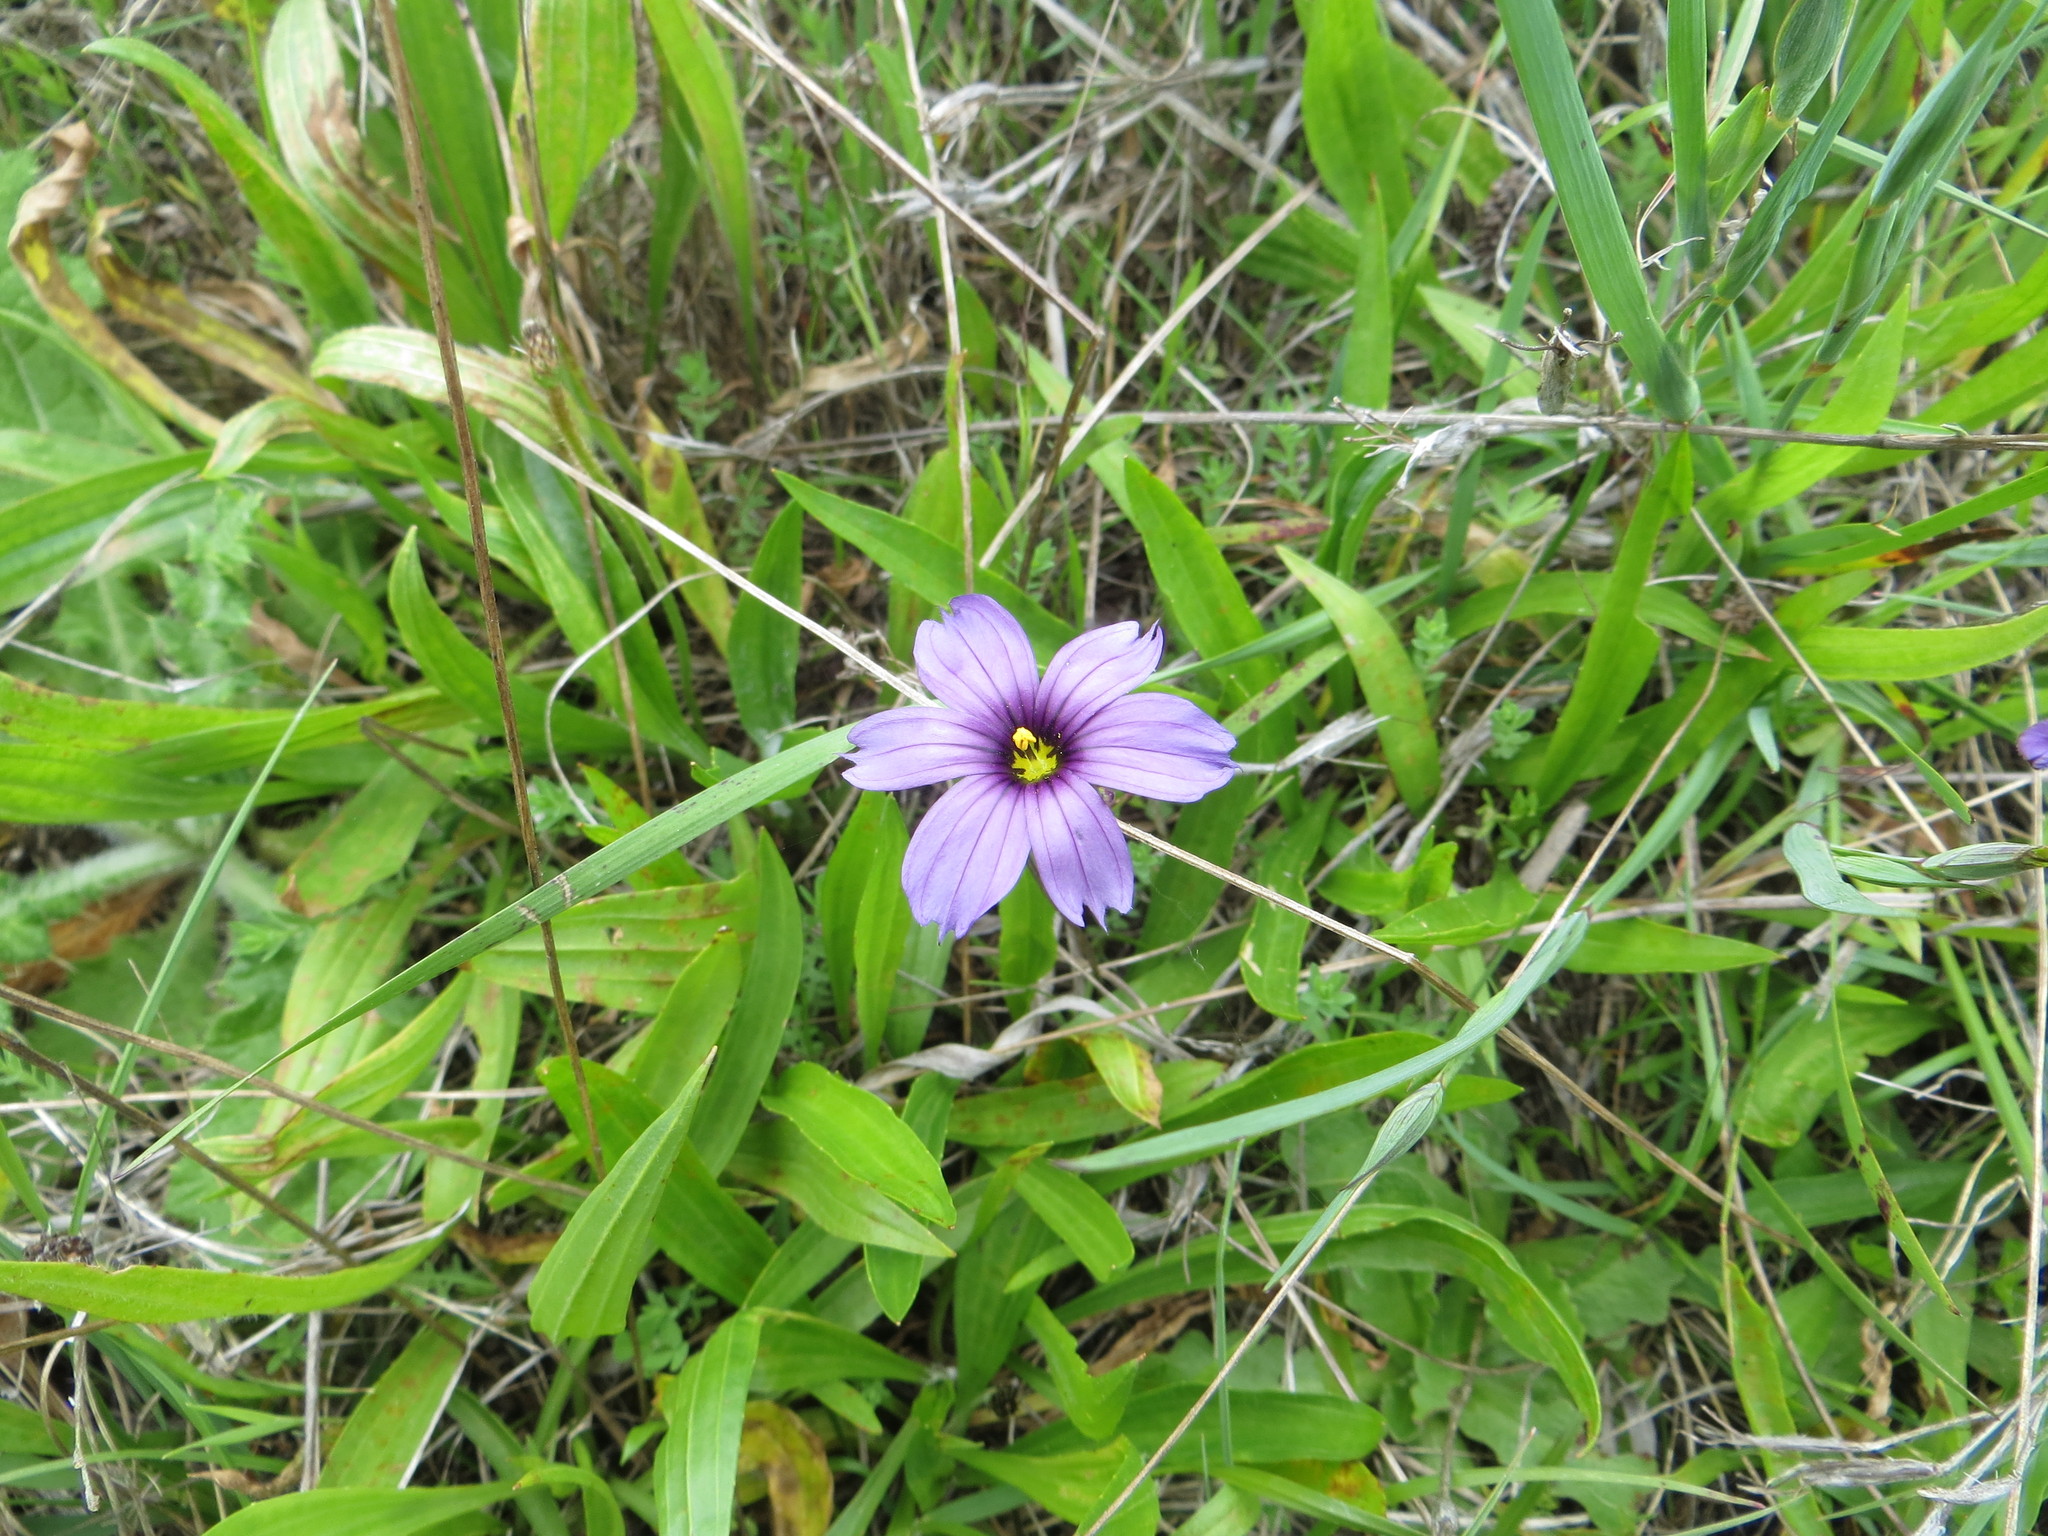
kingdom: Plantae
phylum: Tracheophyta
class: Liliopsida
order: Asparagales
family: Iridaceae
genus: Sisyrinchium
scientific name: Sisyrinchium bellum
